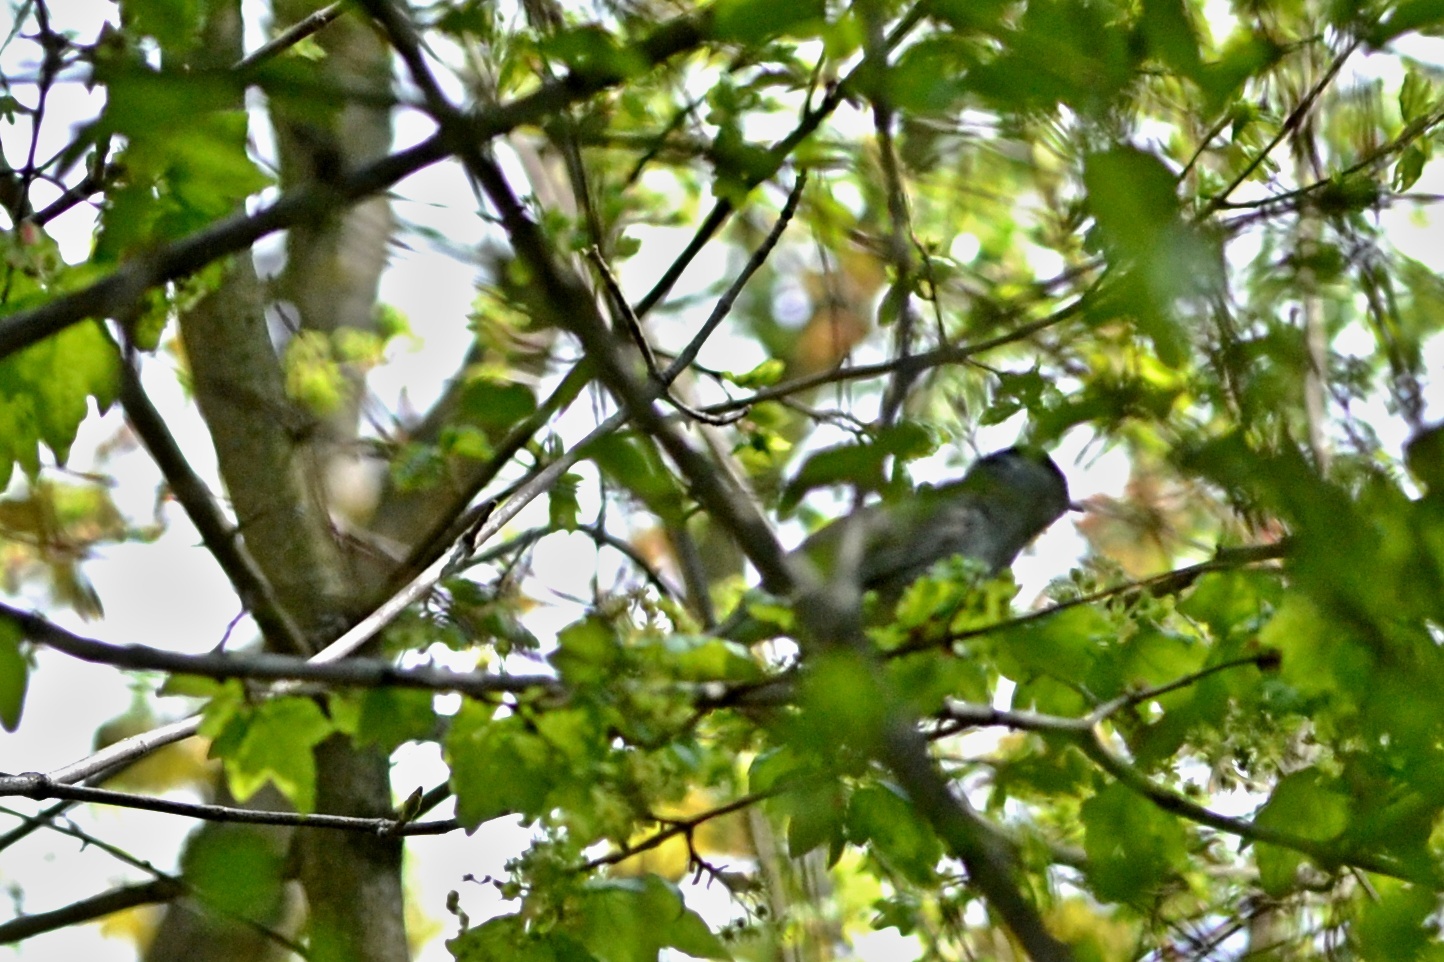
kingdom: Animalia
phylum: Chordata
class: Aves
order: Passeriformes
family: Sylviidae
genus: Sylvia
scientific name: Sylvia atricapilla
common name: Eurasian blackcap
